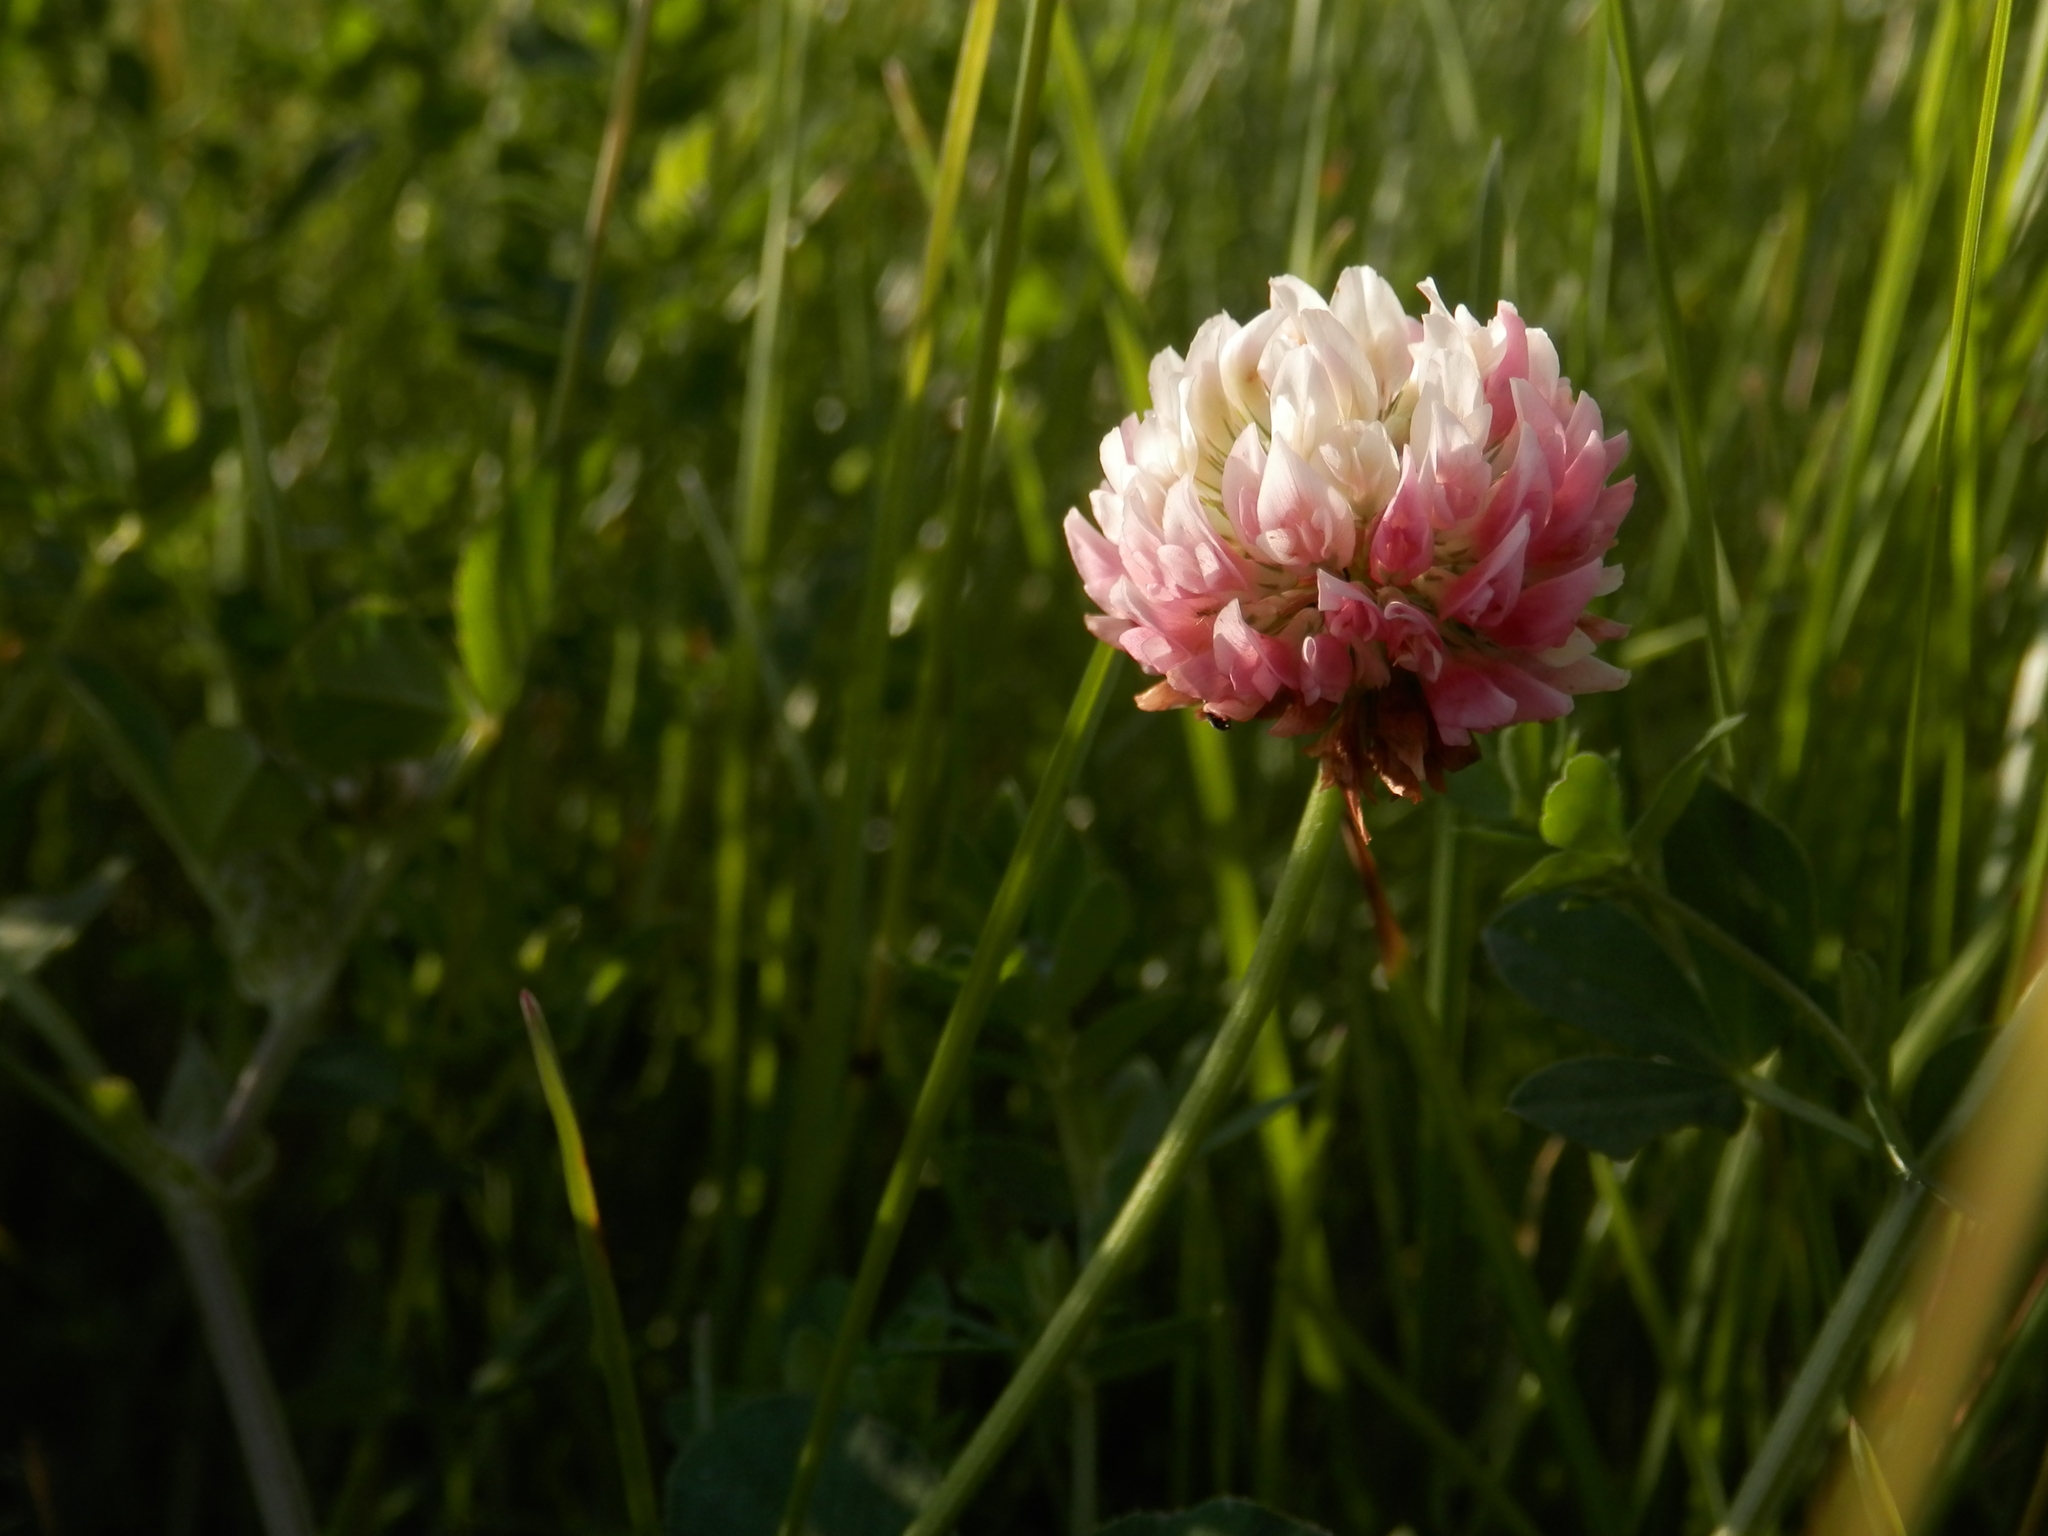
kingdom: Plantae
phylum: Tracheophyta
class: Magnoliopsida
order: Fabales
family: Fabaceae
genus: Trifolium
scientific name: Trifolium hybridum
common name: Alsike clover
